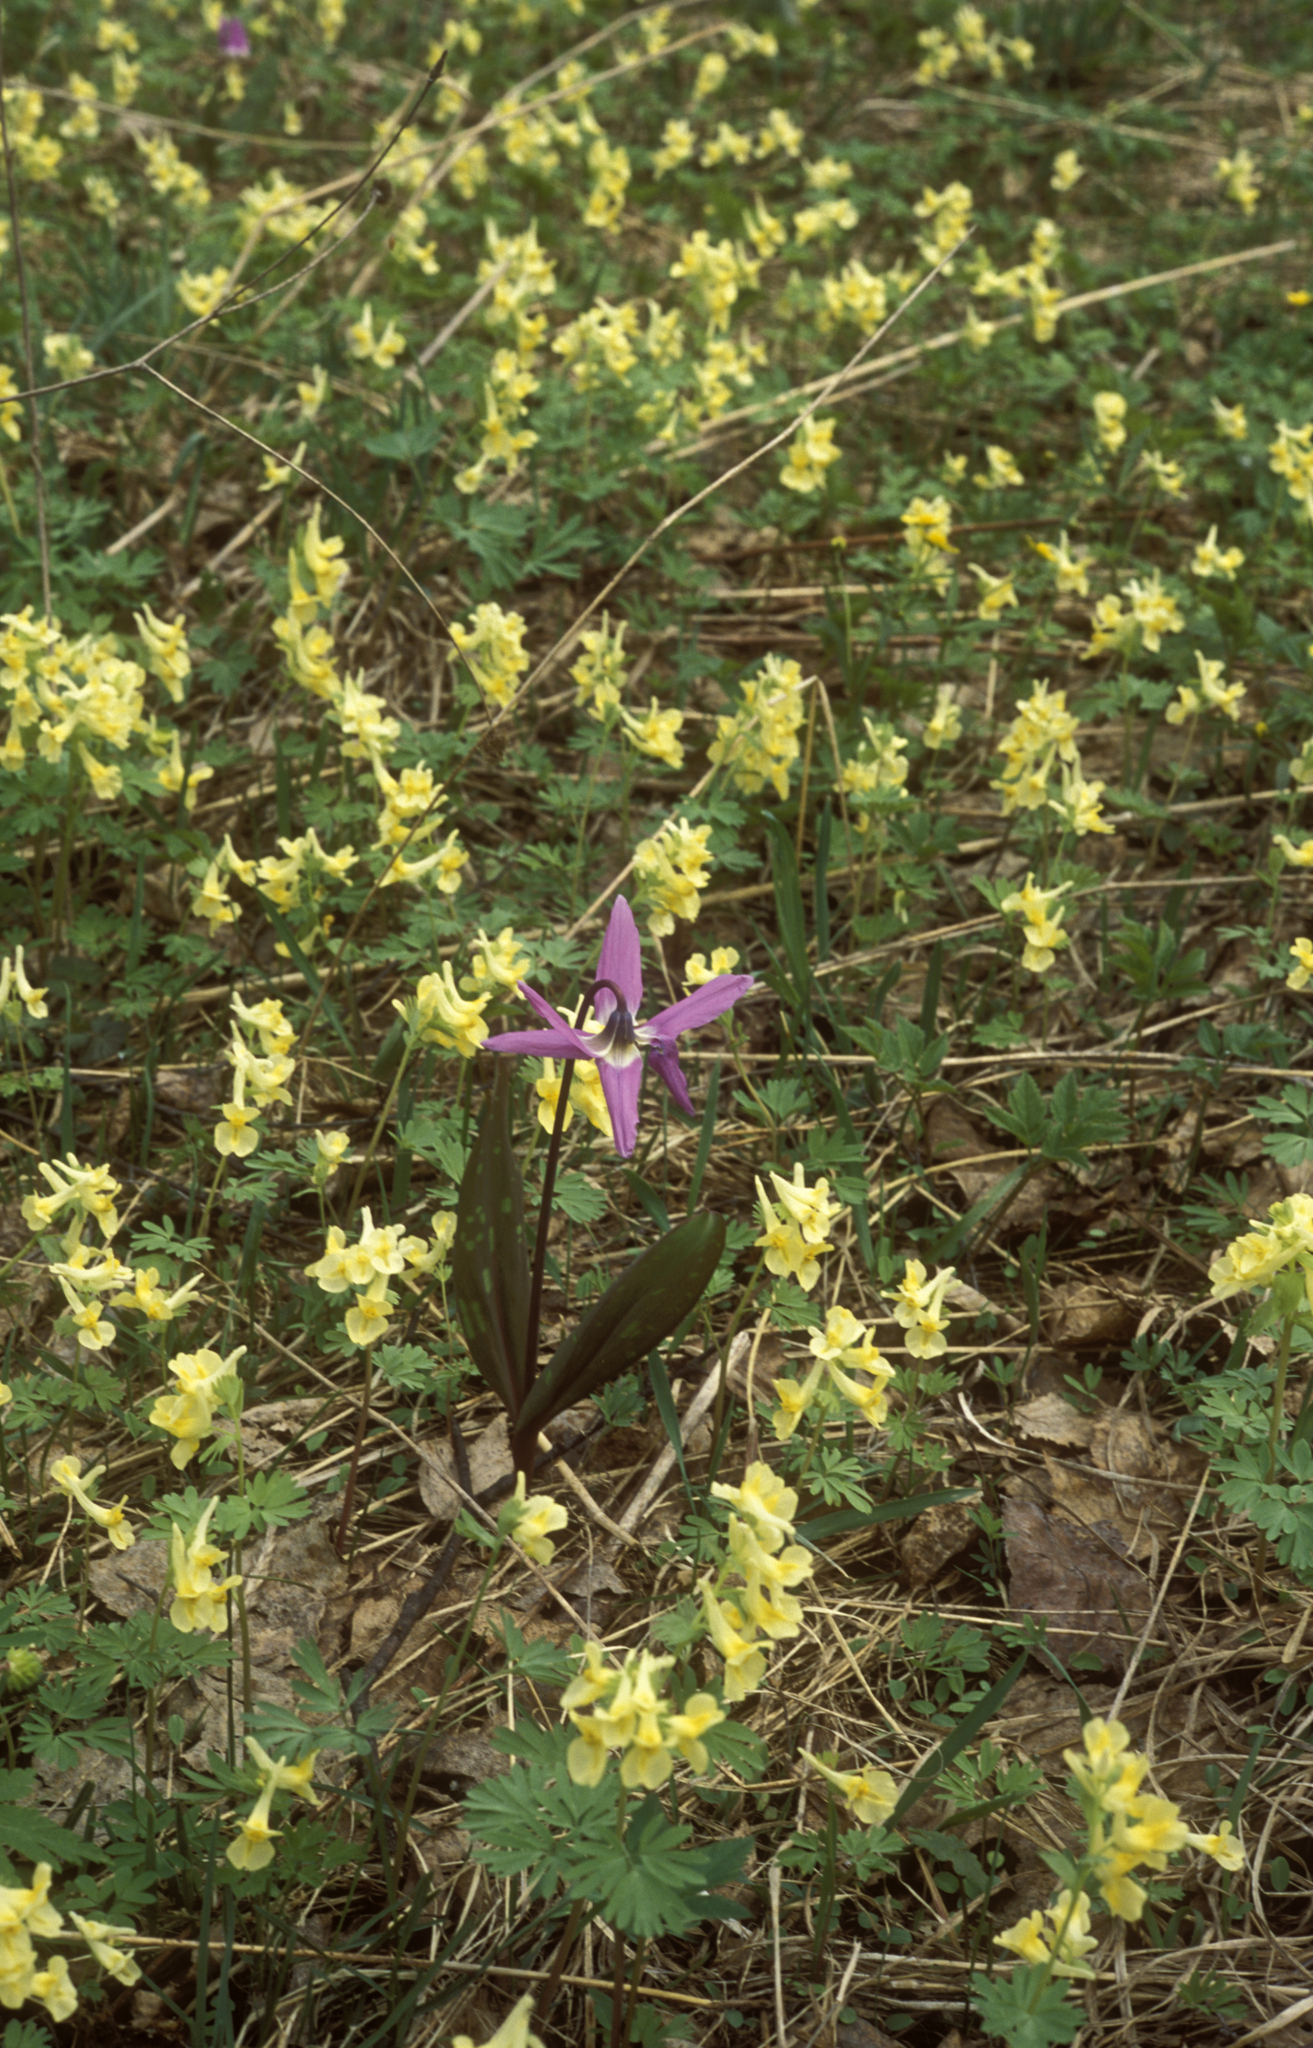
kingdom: Plantae
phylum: Tracheophyta
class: Liliopsida
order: Liliales
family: Liliaceae
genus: Erythronium
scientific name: Erythronium sibiricum
